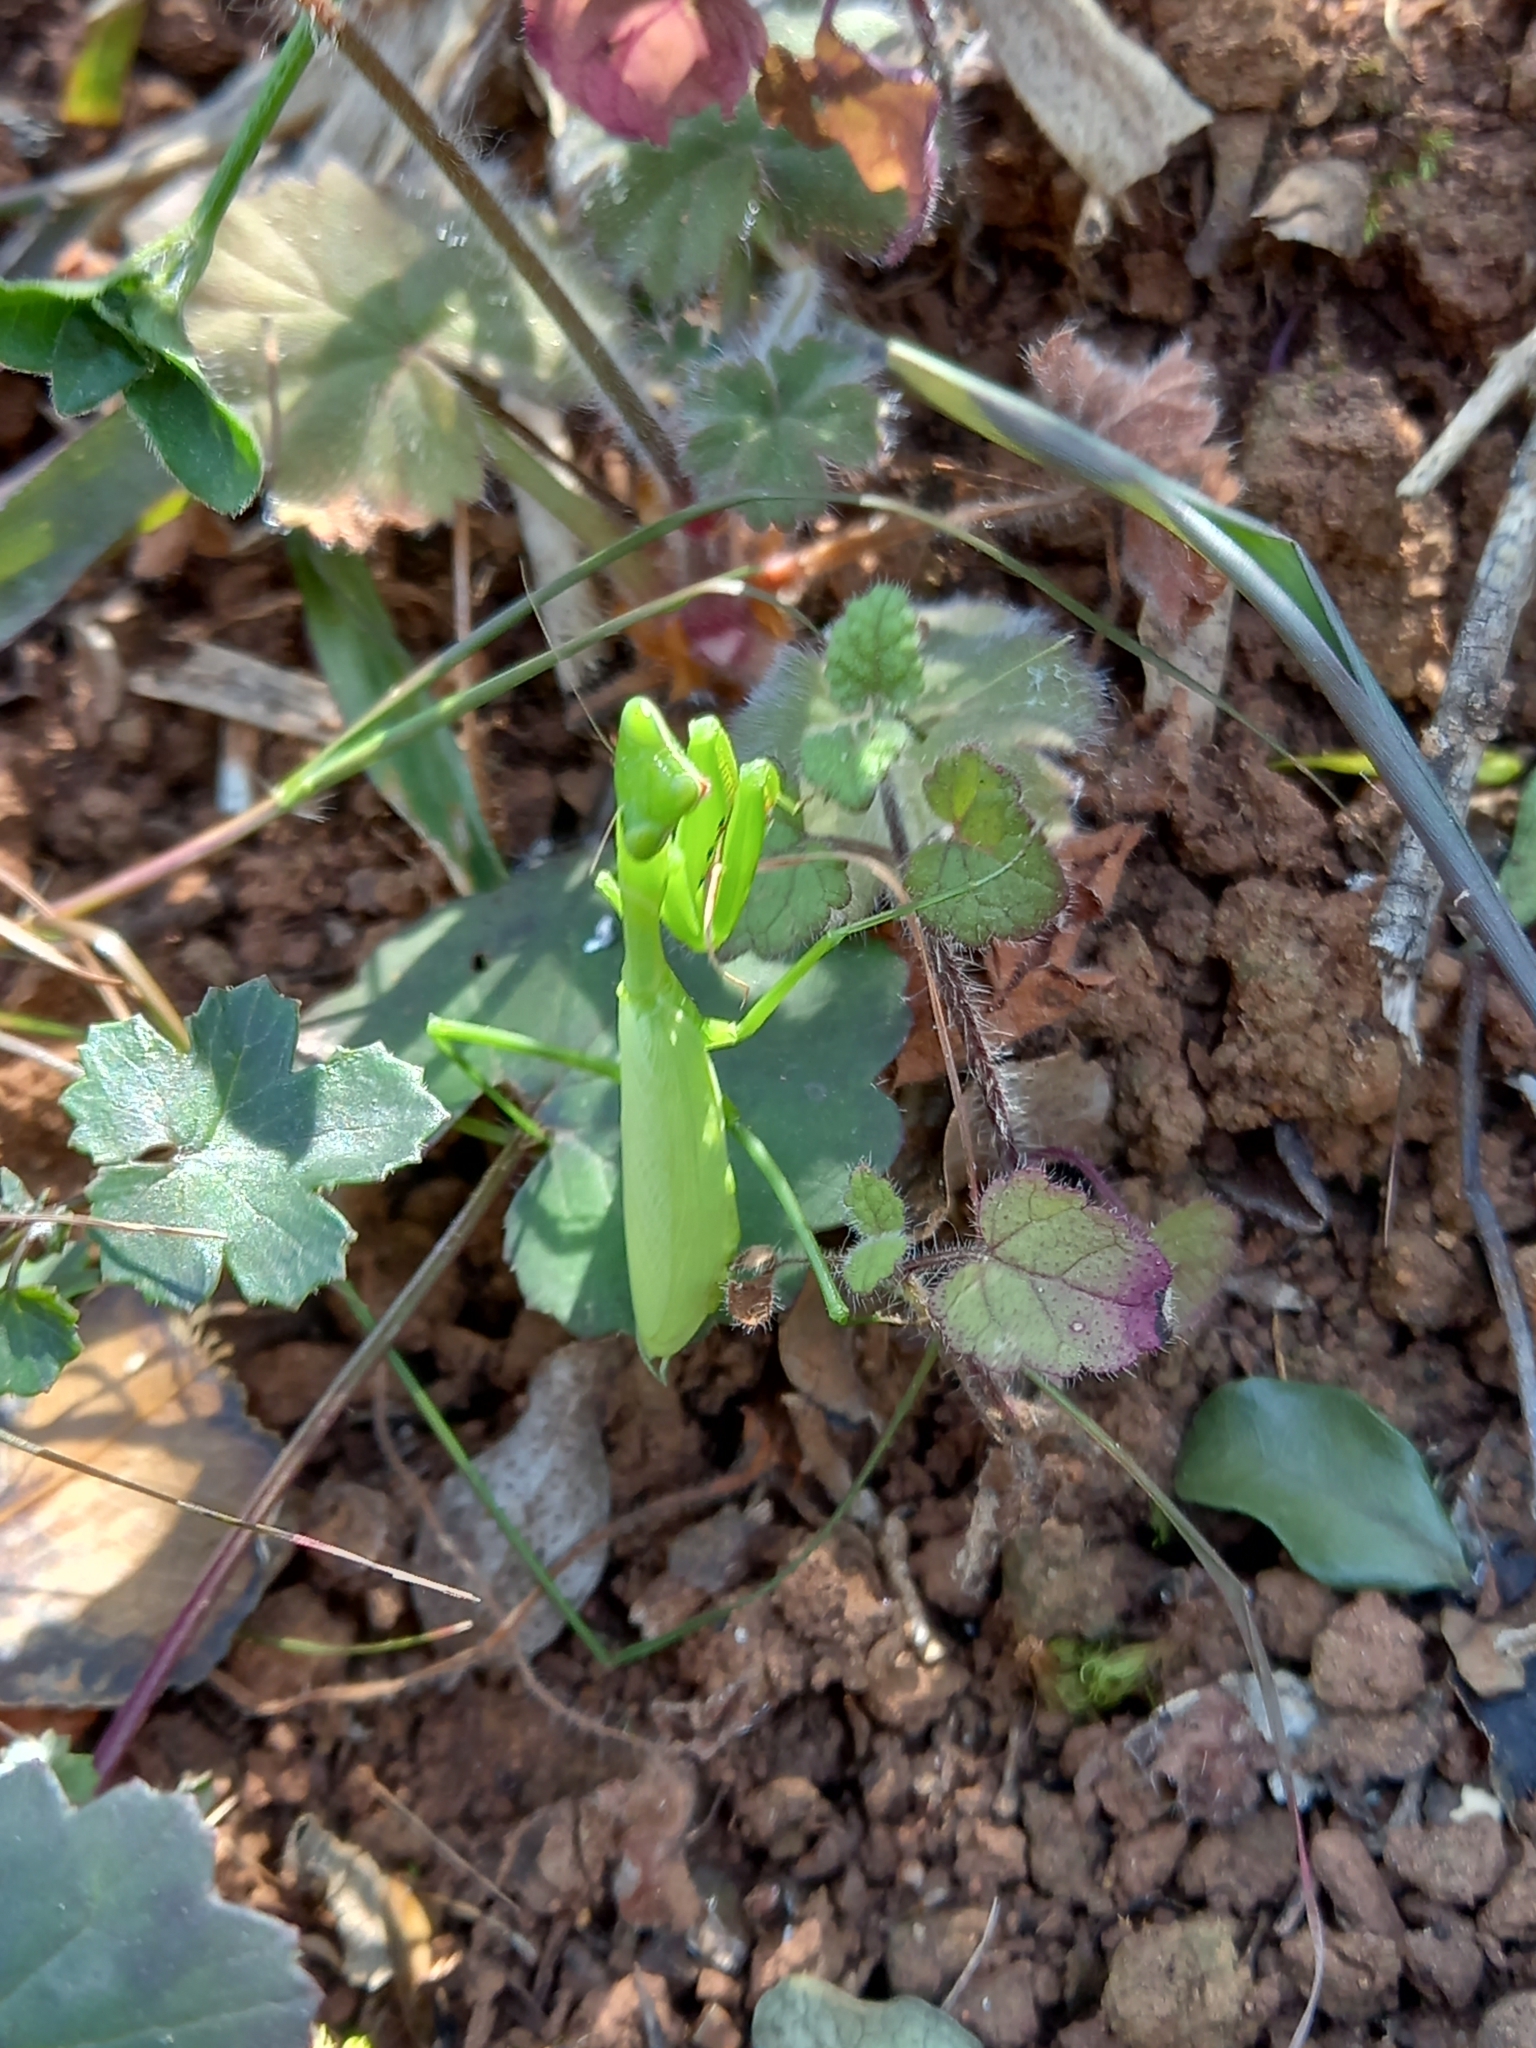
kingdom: Animalia
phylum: Arthropoda
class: Insecta
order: Mantodea
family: Miomantidae
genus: Miomantis
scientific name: Miomantis caffra
